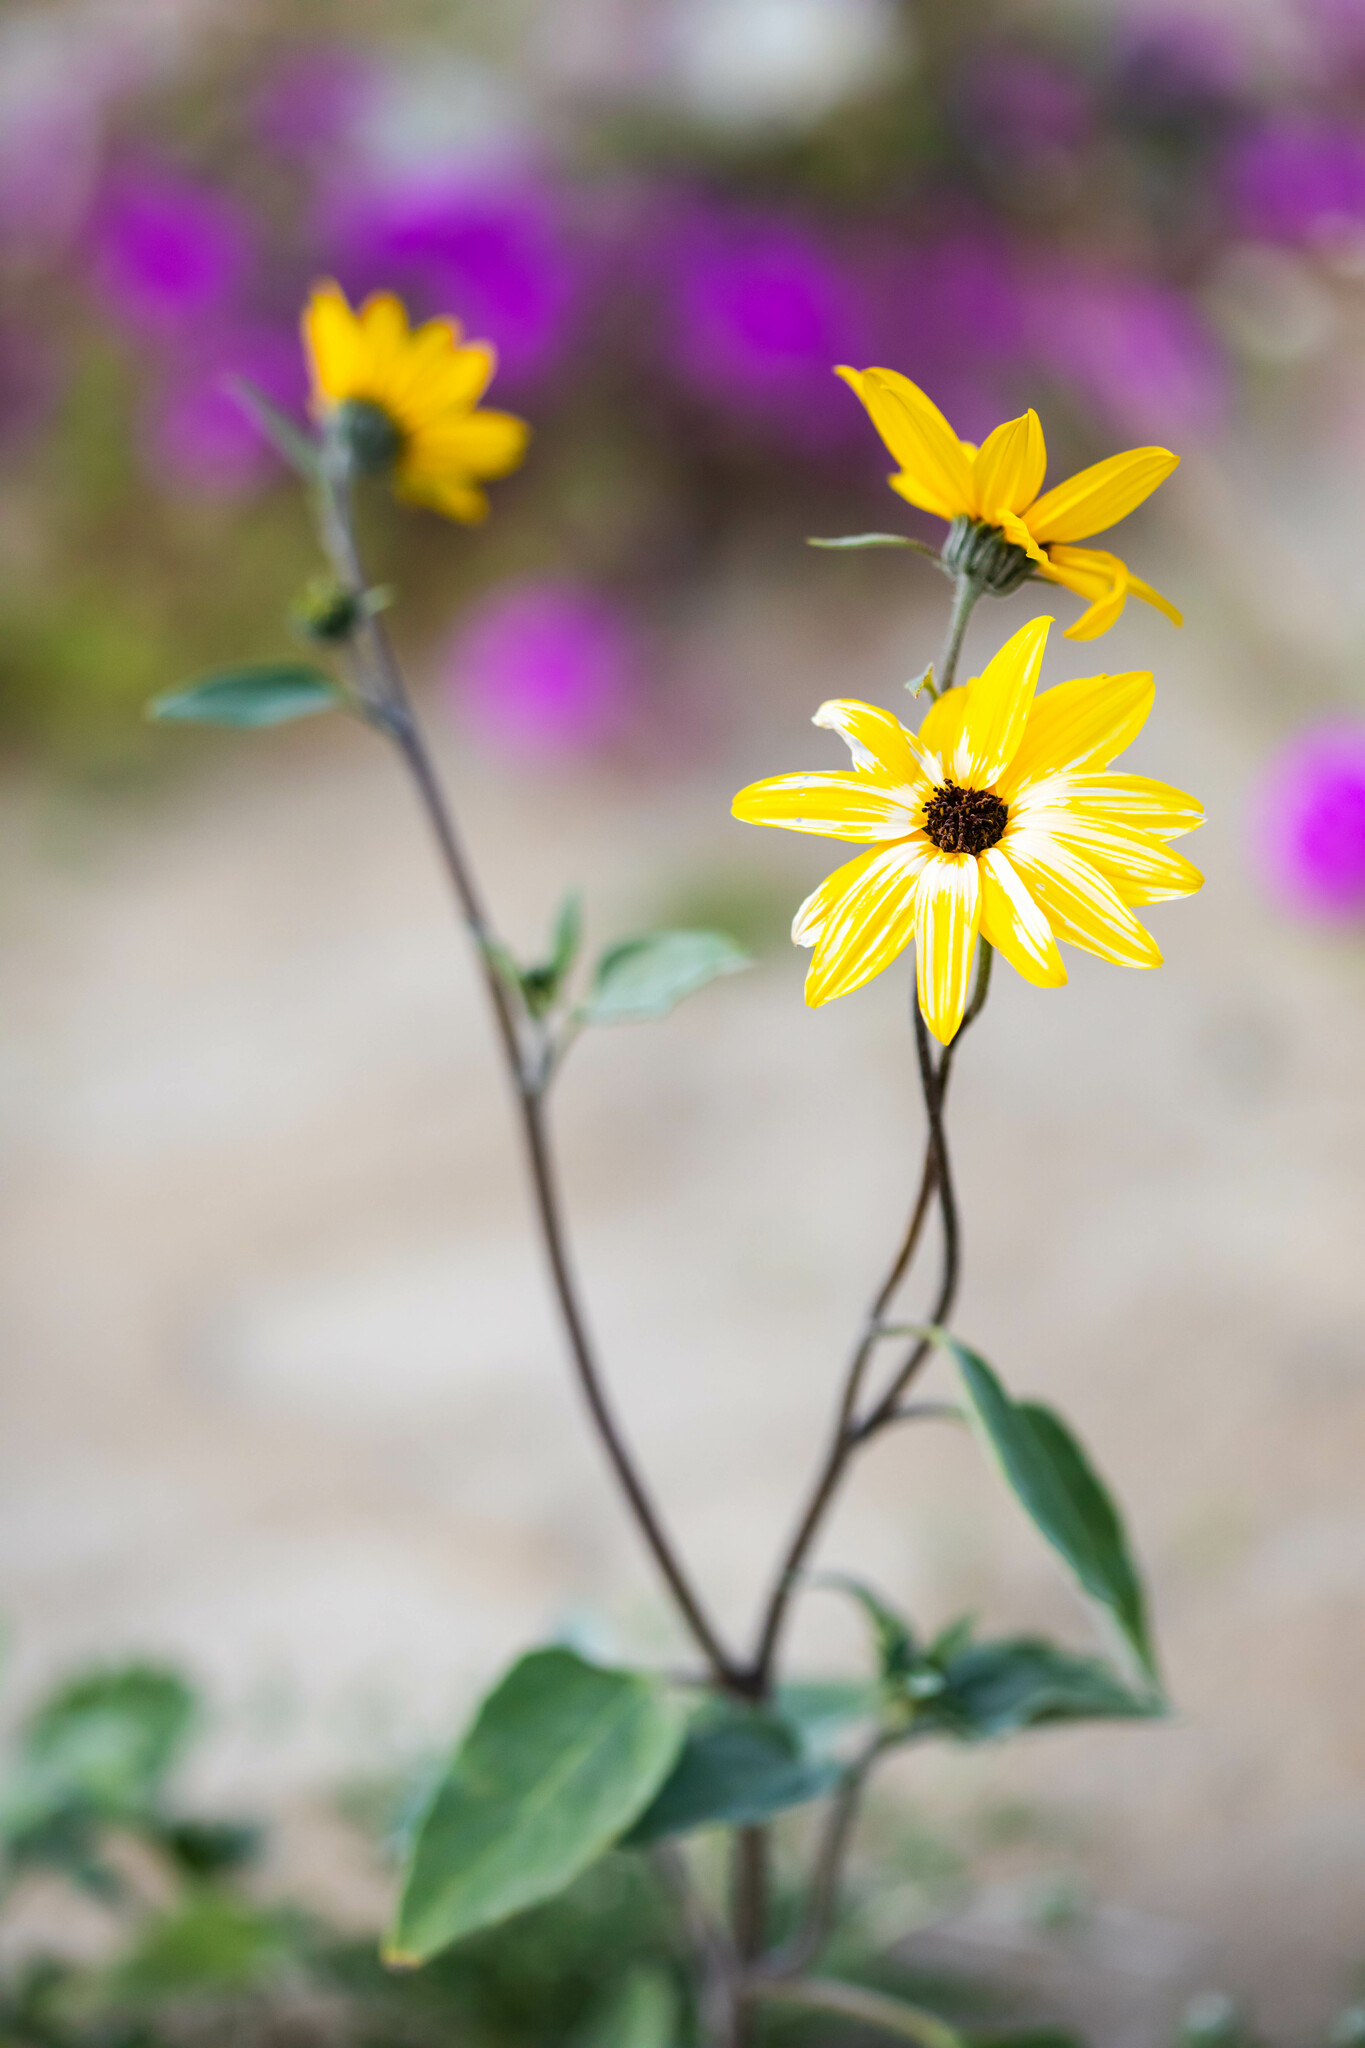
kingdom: Plantae
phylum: Tracheophyta
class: Magnoliopsida
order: Asterales
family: Asteraceae
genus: Helianthus
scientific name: Helianthus petiolaris
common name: Lesser sunflower
